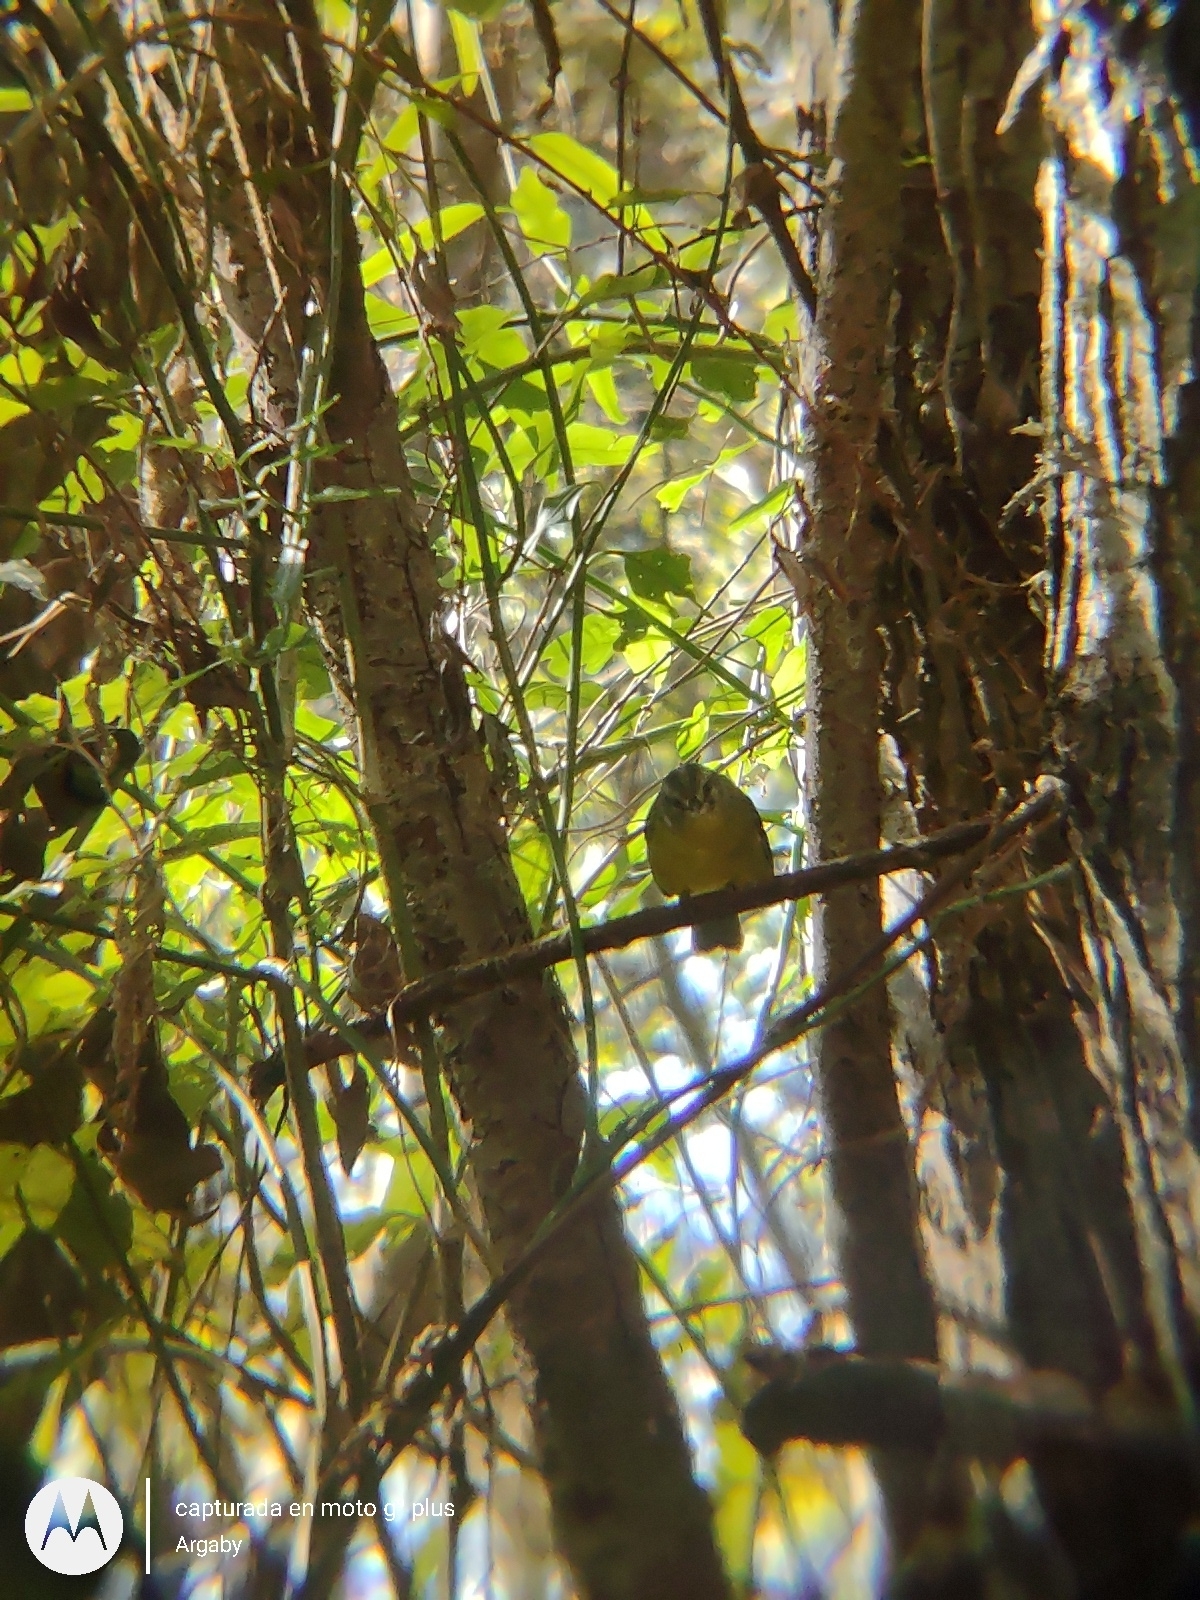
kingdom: Animalia
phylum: Chordata
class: Aves
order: Passeriformes
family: Parulidae
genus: Basileuterus
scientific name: Basileuterus culicivorus
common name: Golden-crowned warbler
